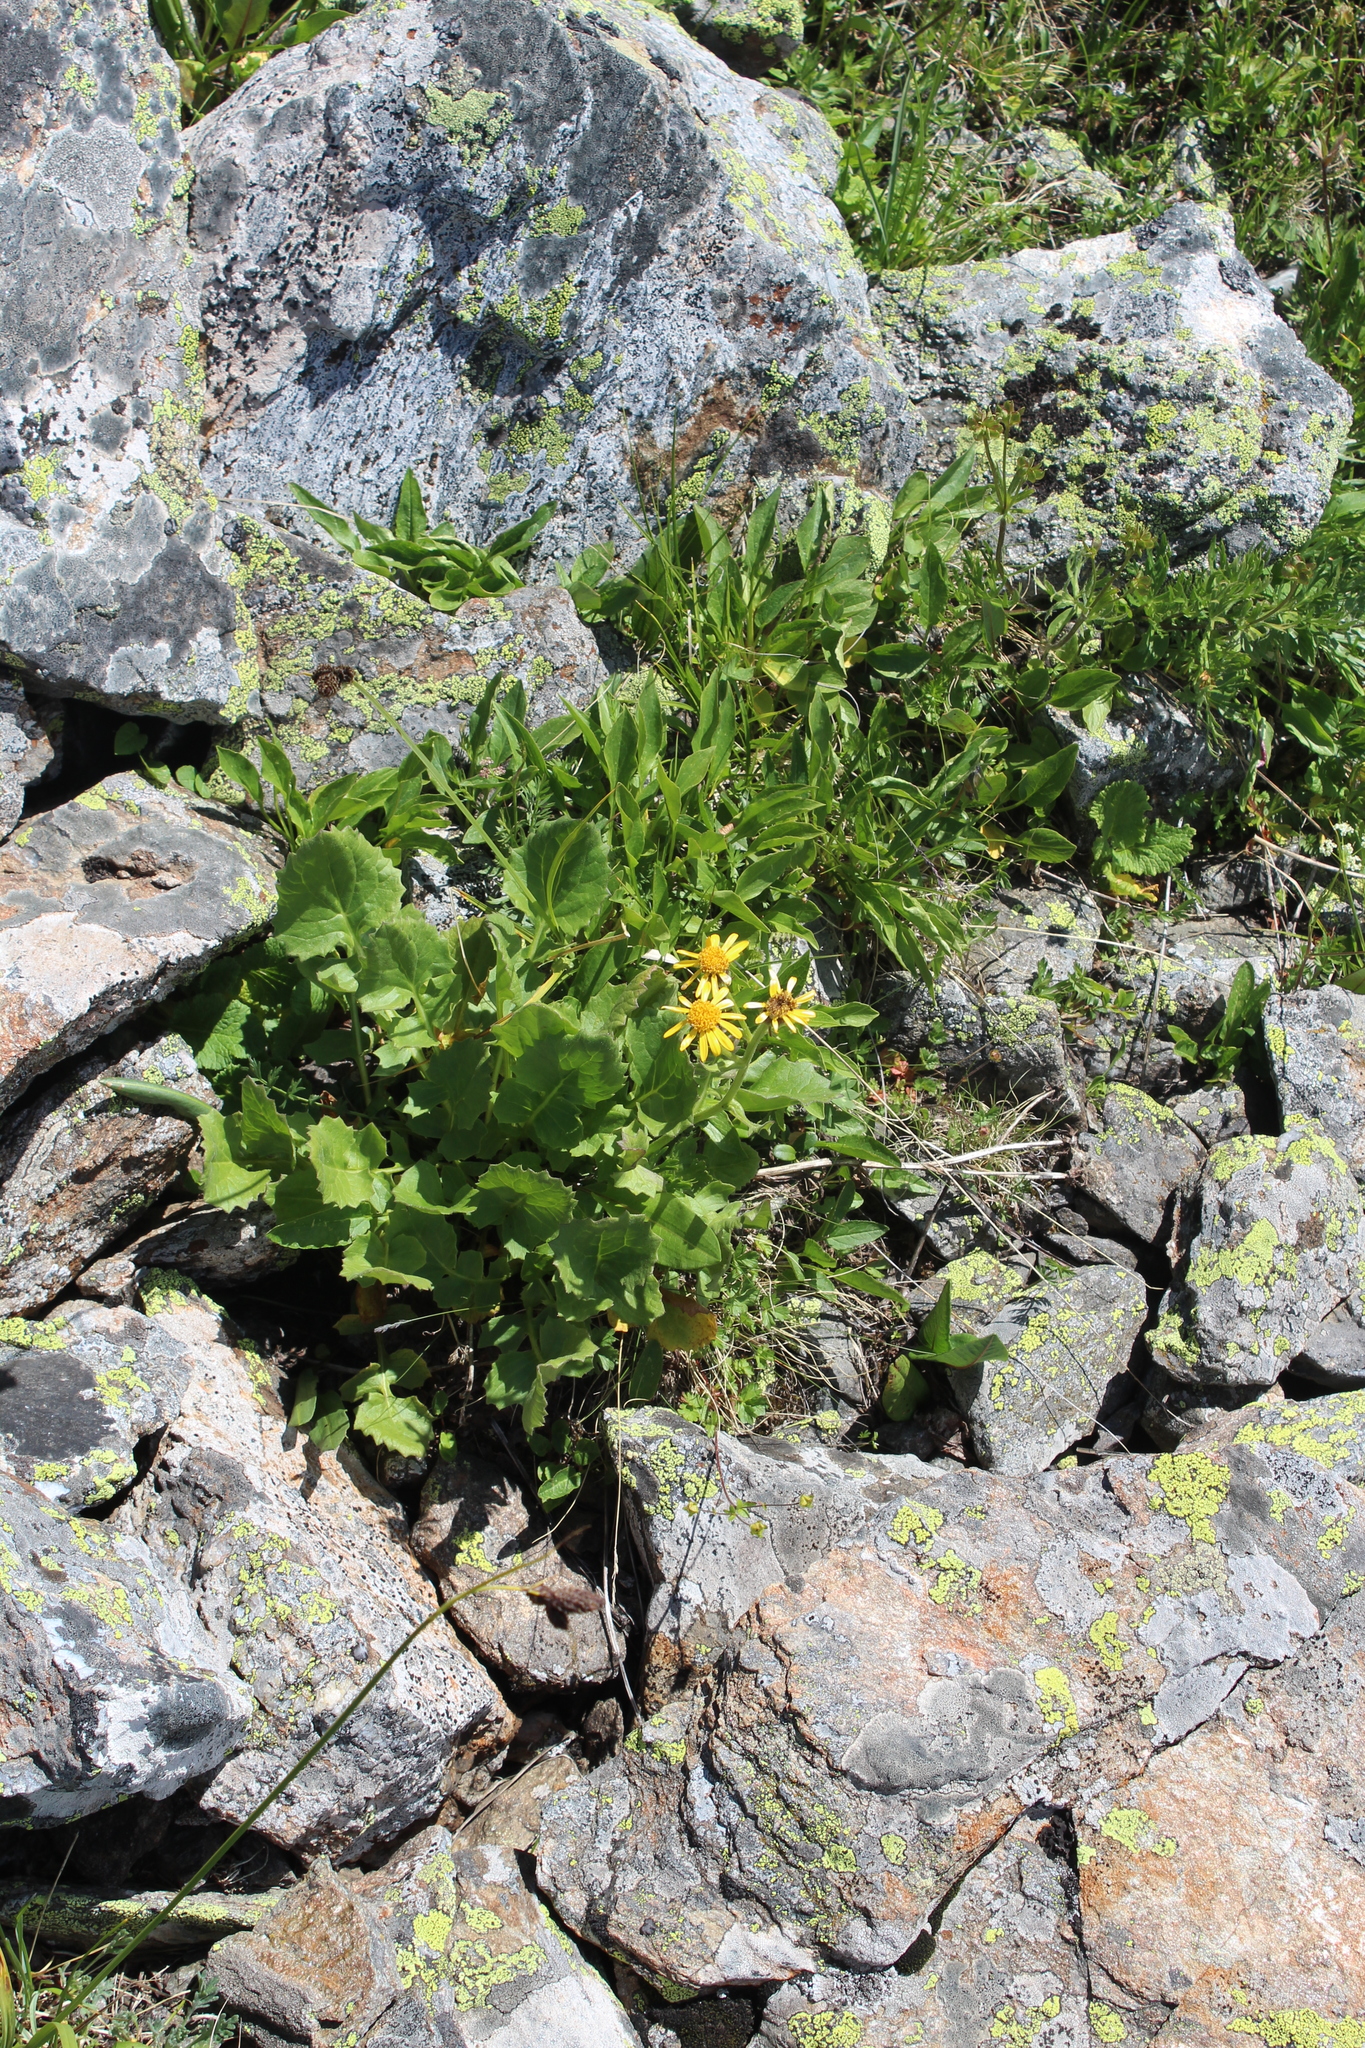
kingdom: Plantae
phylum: Tracheophyta
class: Magnoliopsida
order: Asterales
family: Asteraceae
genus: Turanecio
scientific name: Turanecio taraxacifolius
